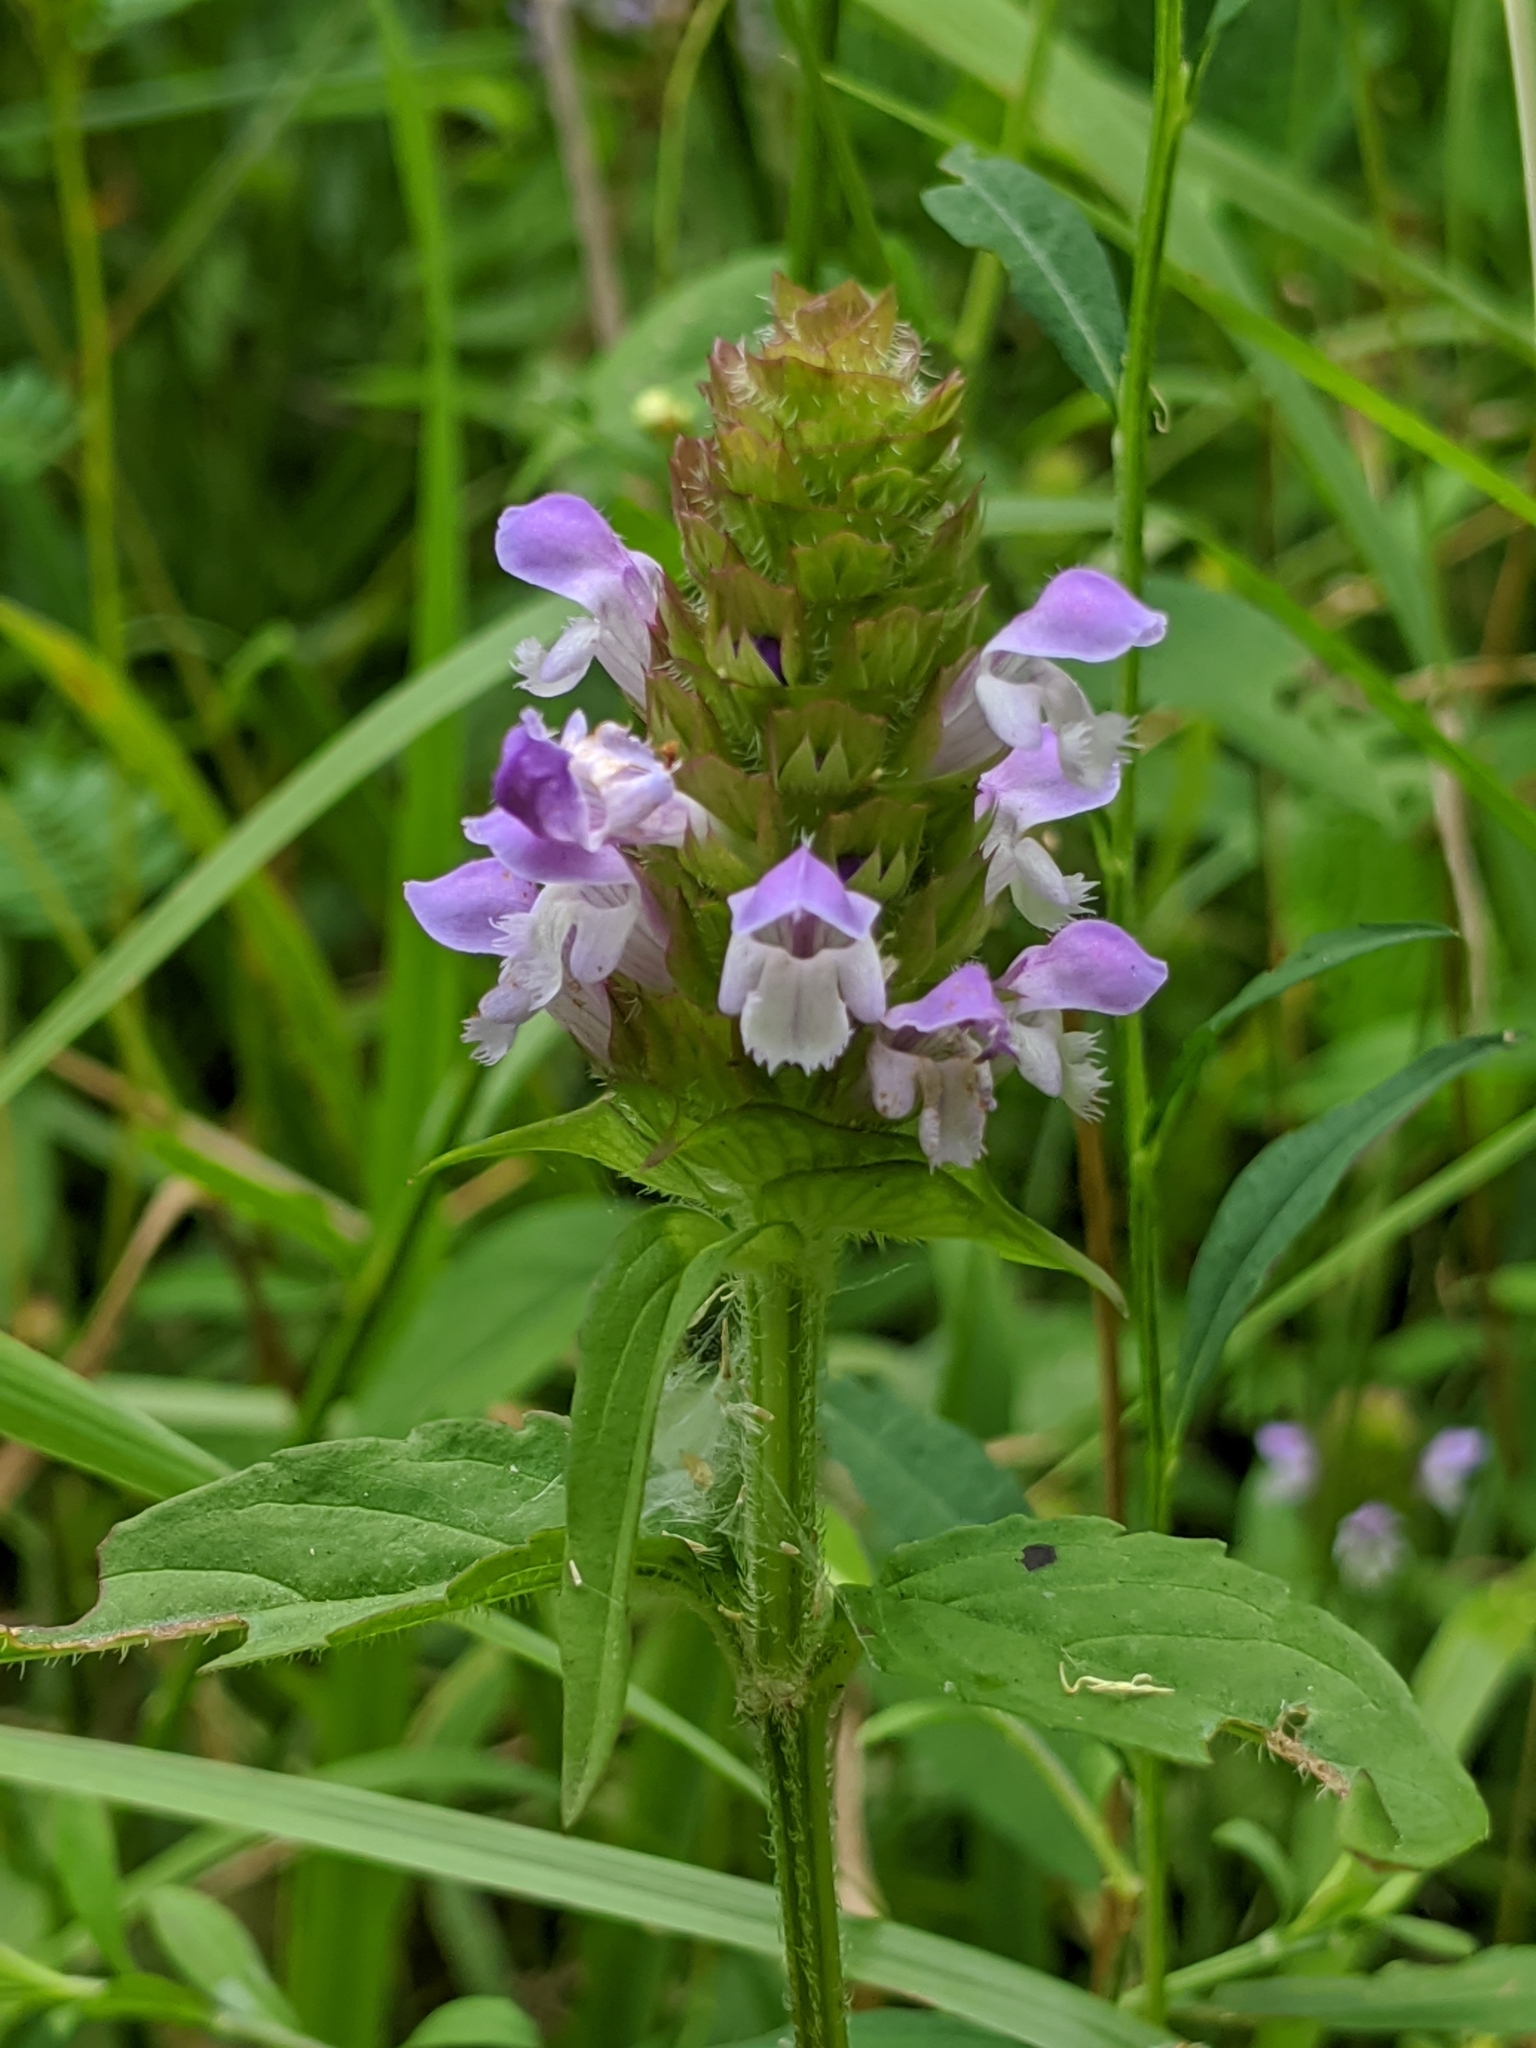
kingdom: Plantae
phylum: Tracheophyta
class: Magnoliopsida
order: Lamiales
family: Lamiaceae
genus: Prunella
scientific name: Prunella vulgaris
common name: Heal-all
